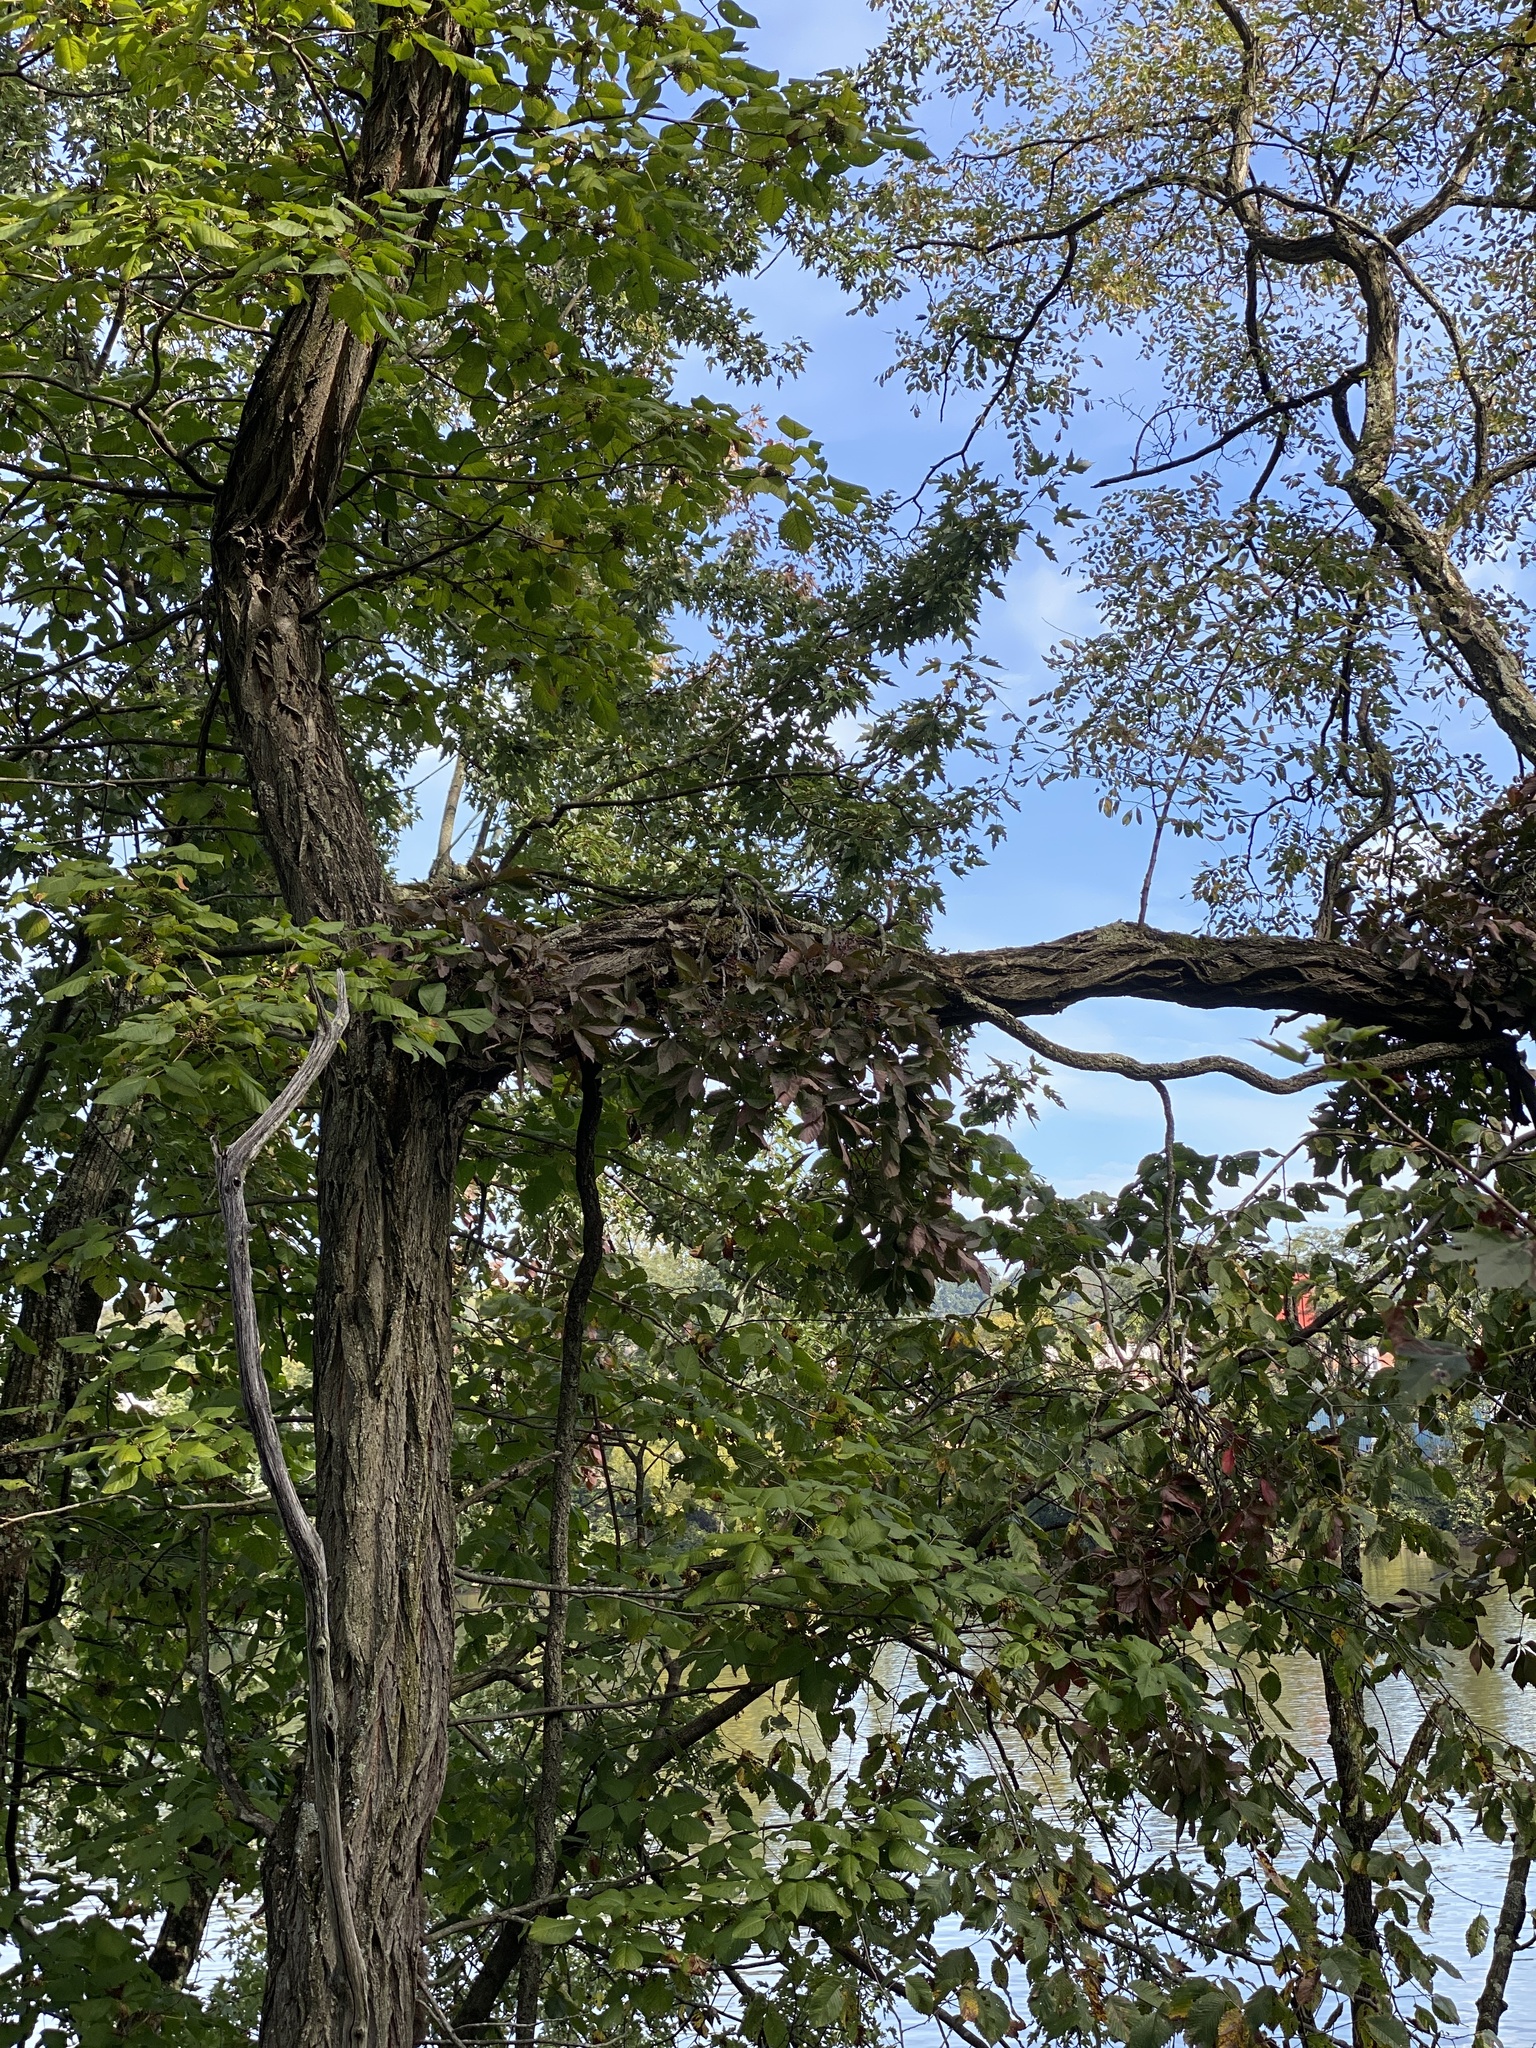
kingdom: Plantae
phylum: Tracheophyta
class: Magnoliopsida
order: Vitales
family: Vitaceae
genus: Parthenocissus
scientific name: Parthenocissus quinquefolia
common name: Virginia-creeper
